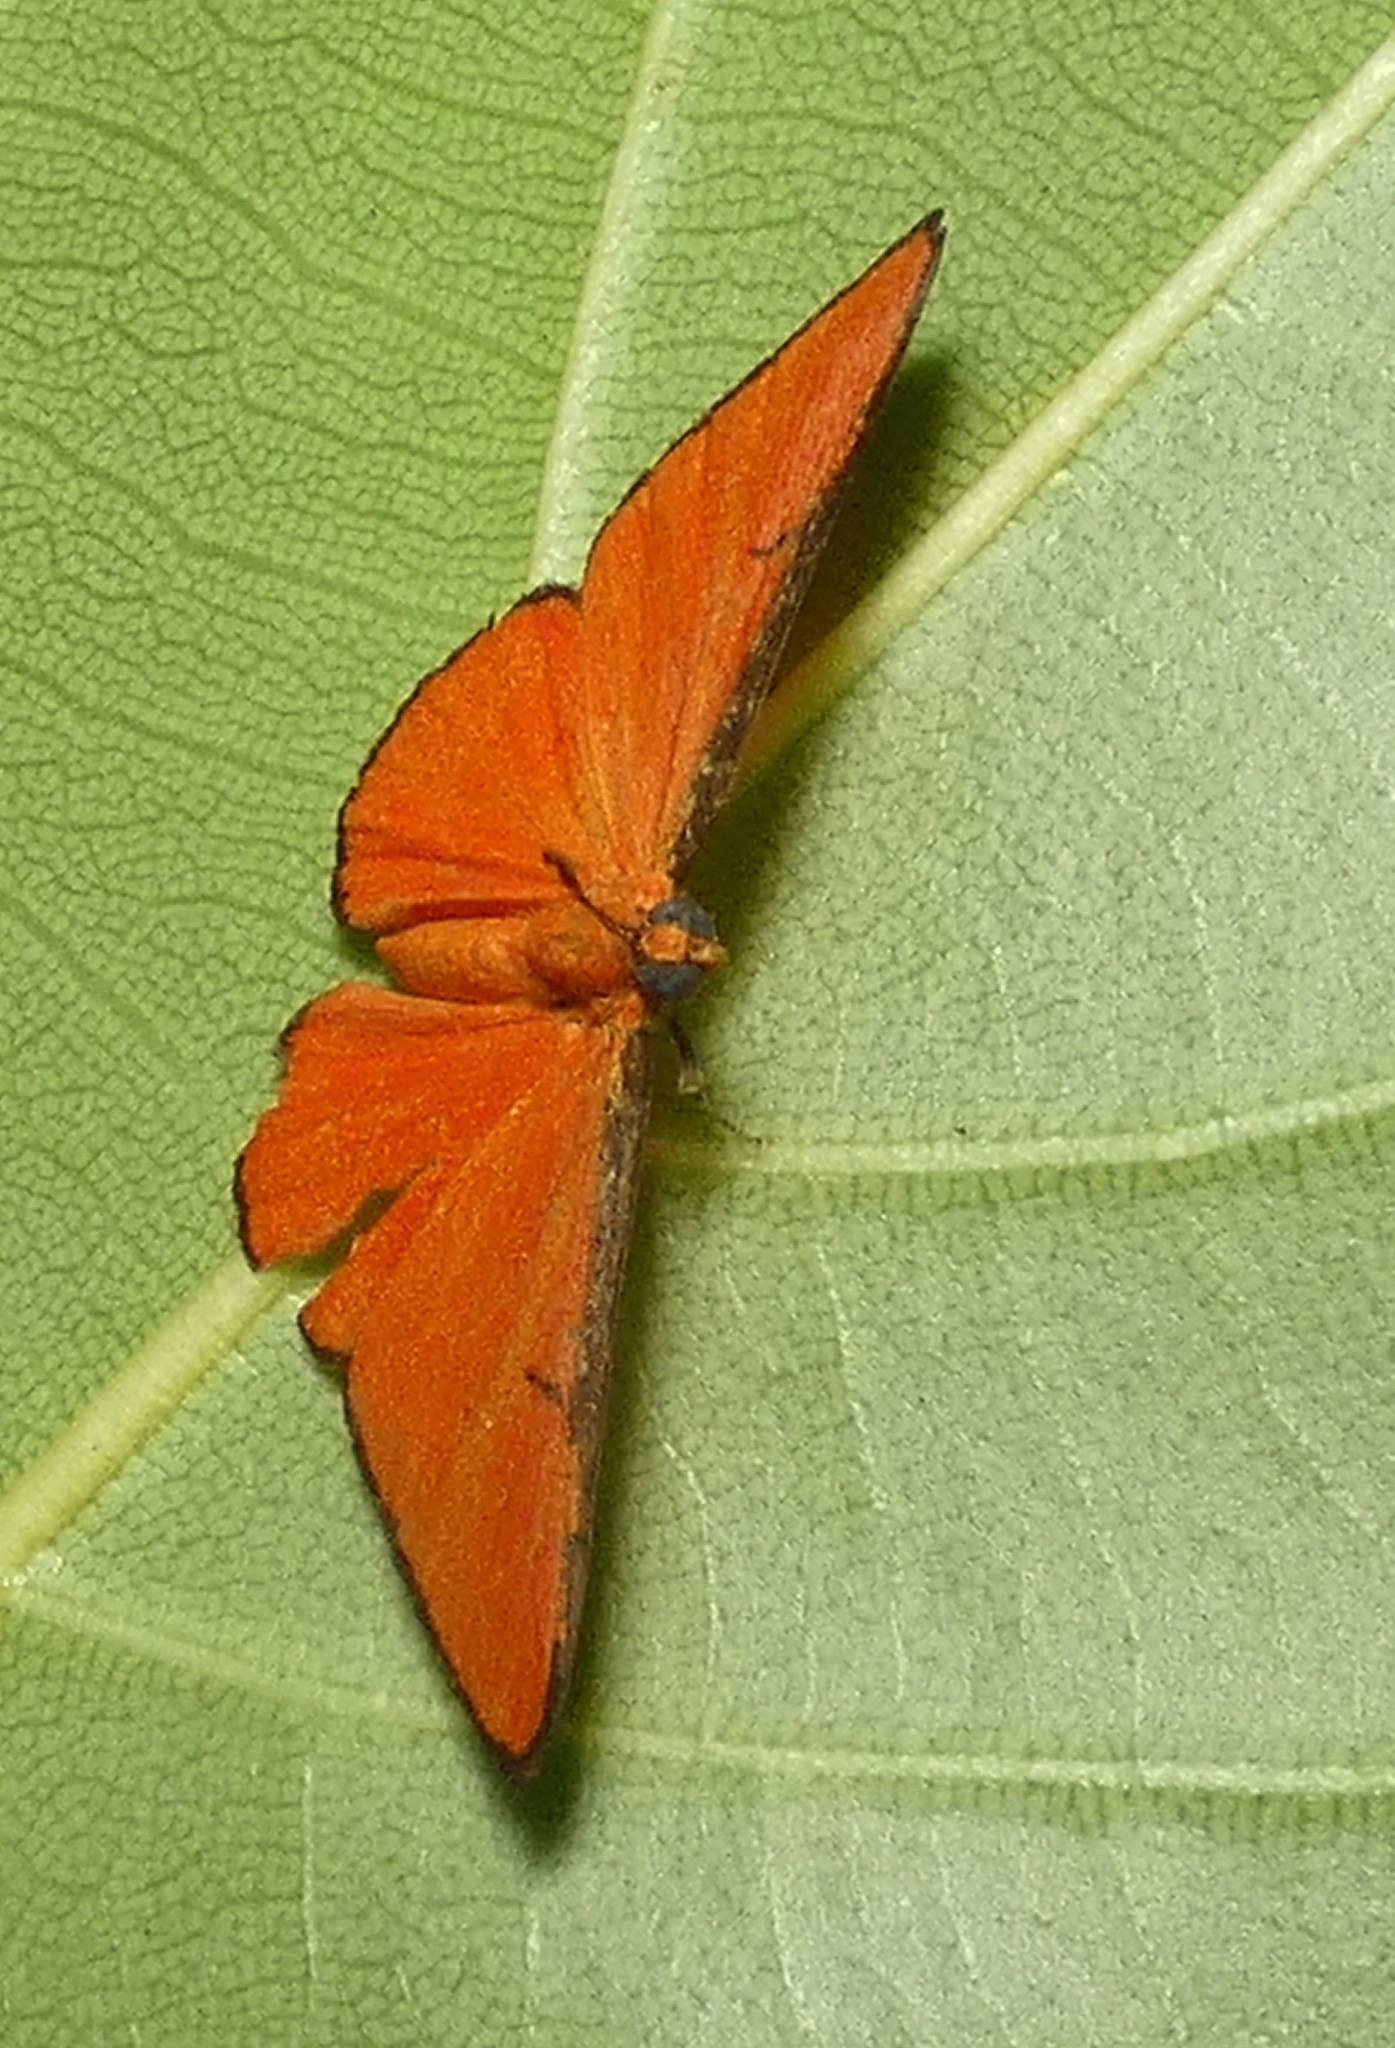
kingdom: Animalia
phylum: Arthropoda
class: Insecta
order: Lepidoptera
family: Lycaenidae
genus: Mesene
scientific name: Mesene phareus
